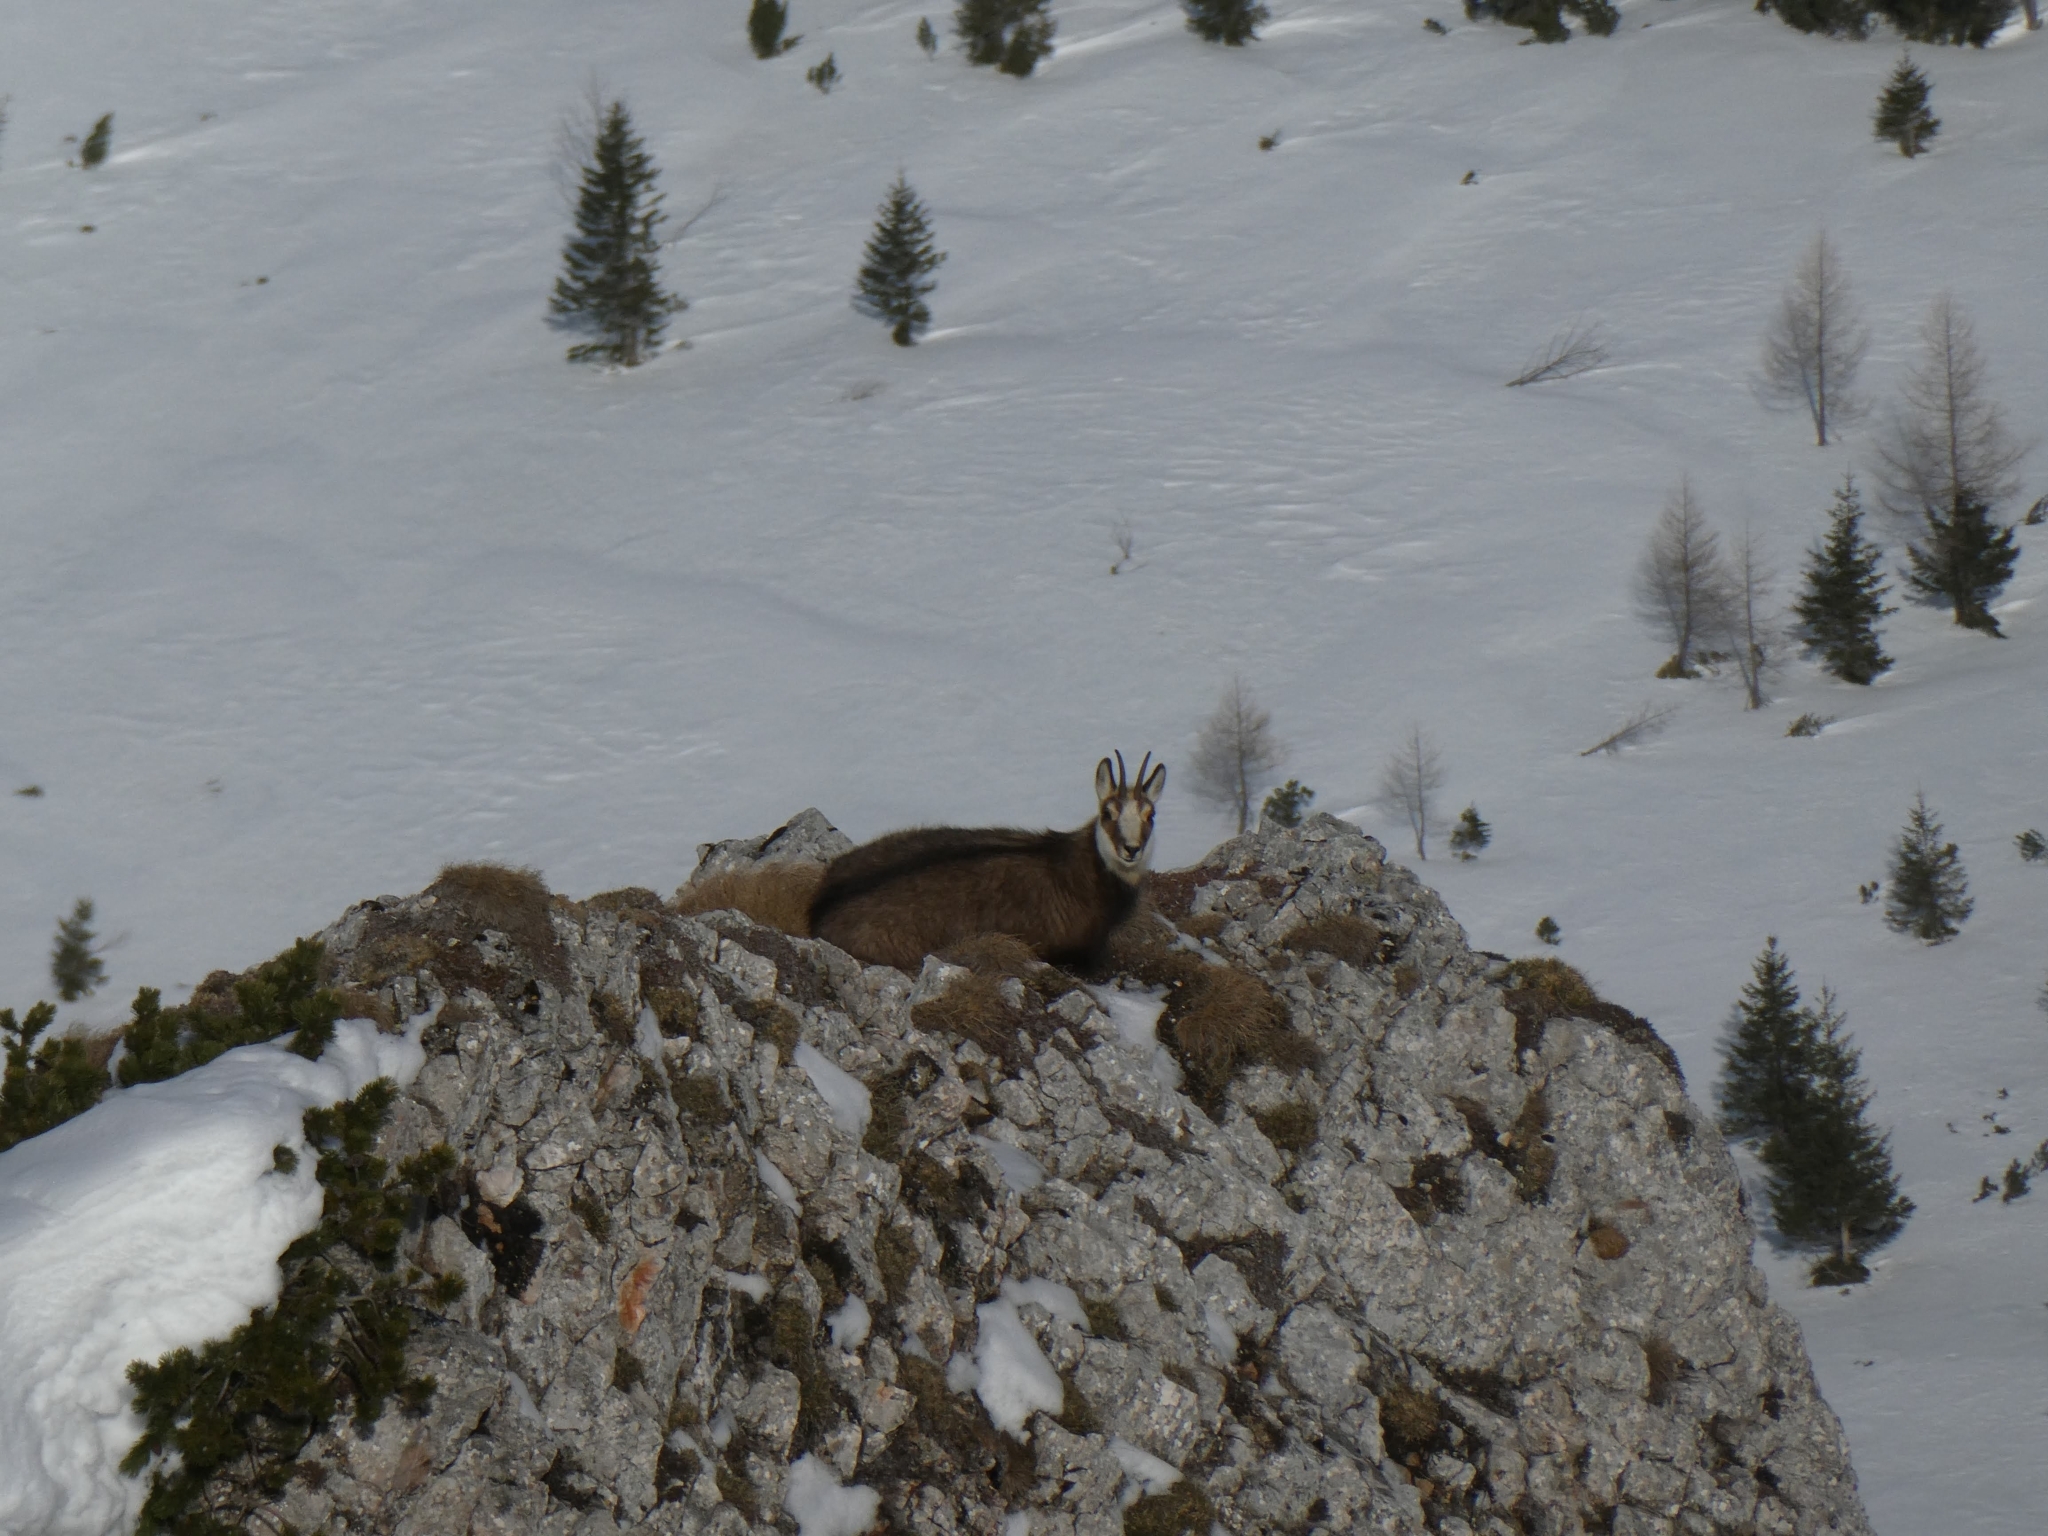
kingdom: Animalia
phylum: Chordata
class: Mammalia
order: Artiodactyla
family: Bovidae
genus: Rupicapra
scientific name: Rupicapra rupicapra
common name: Chamois
